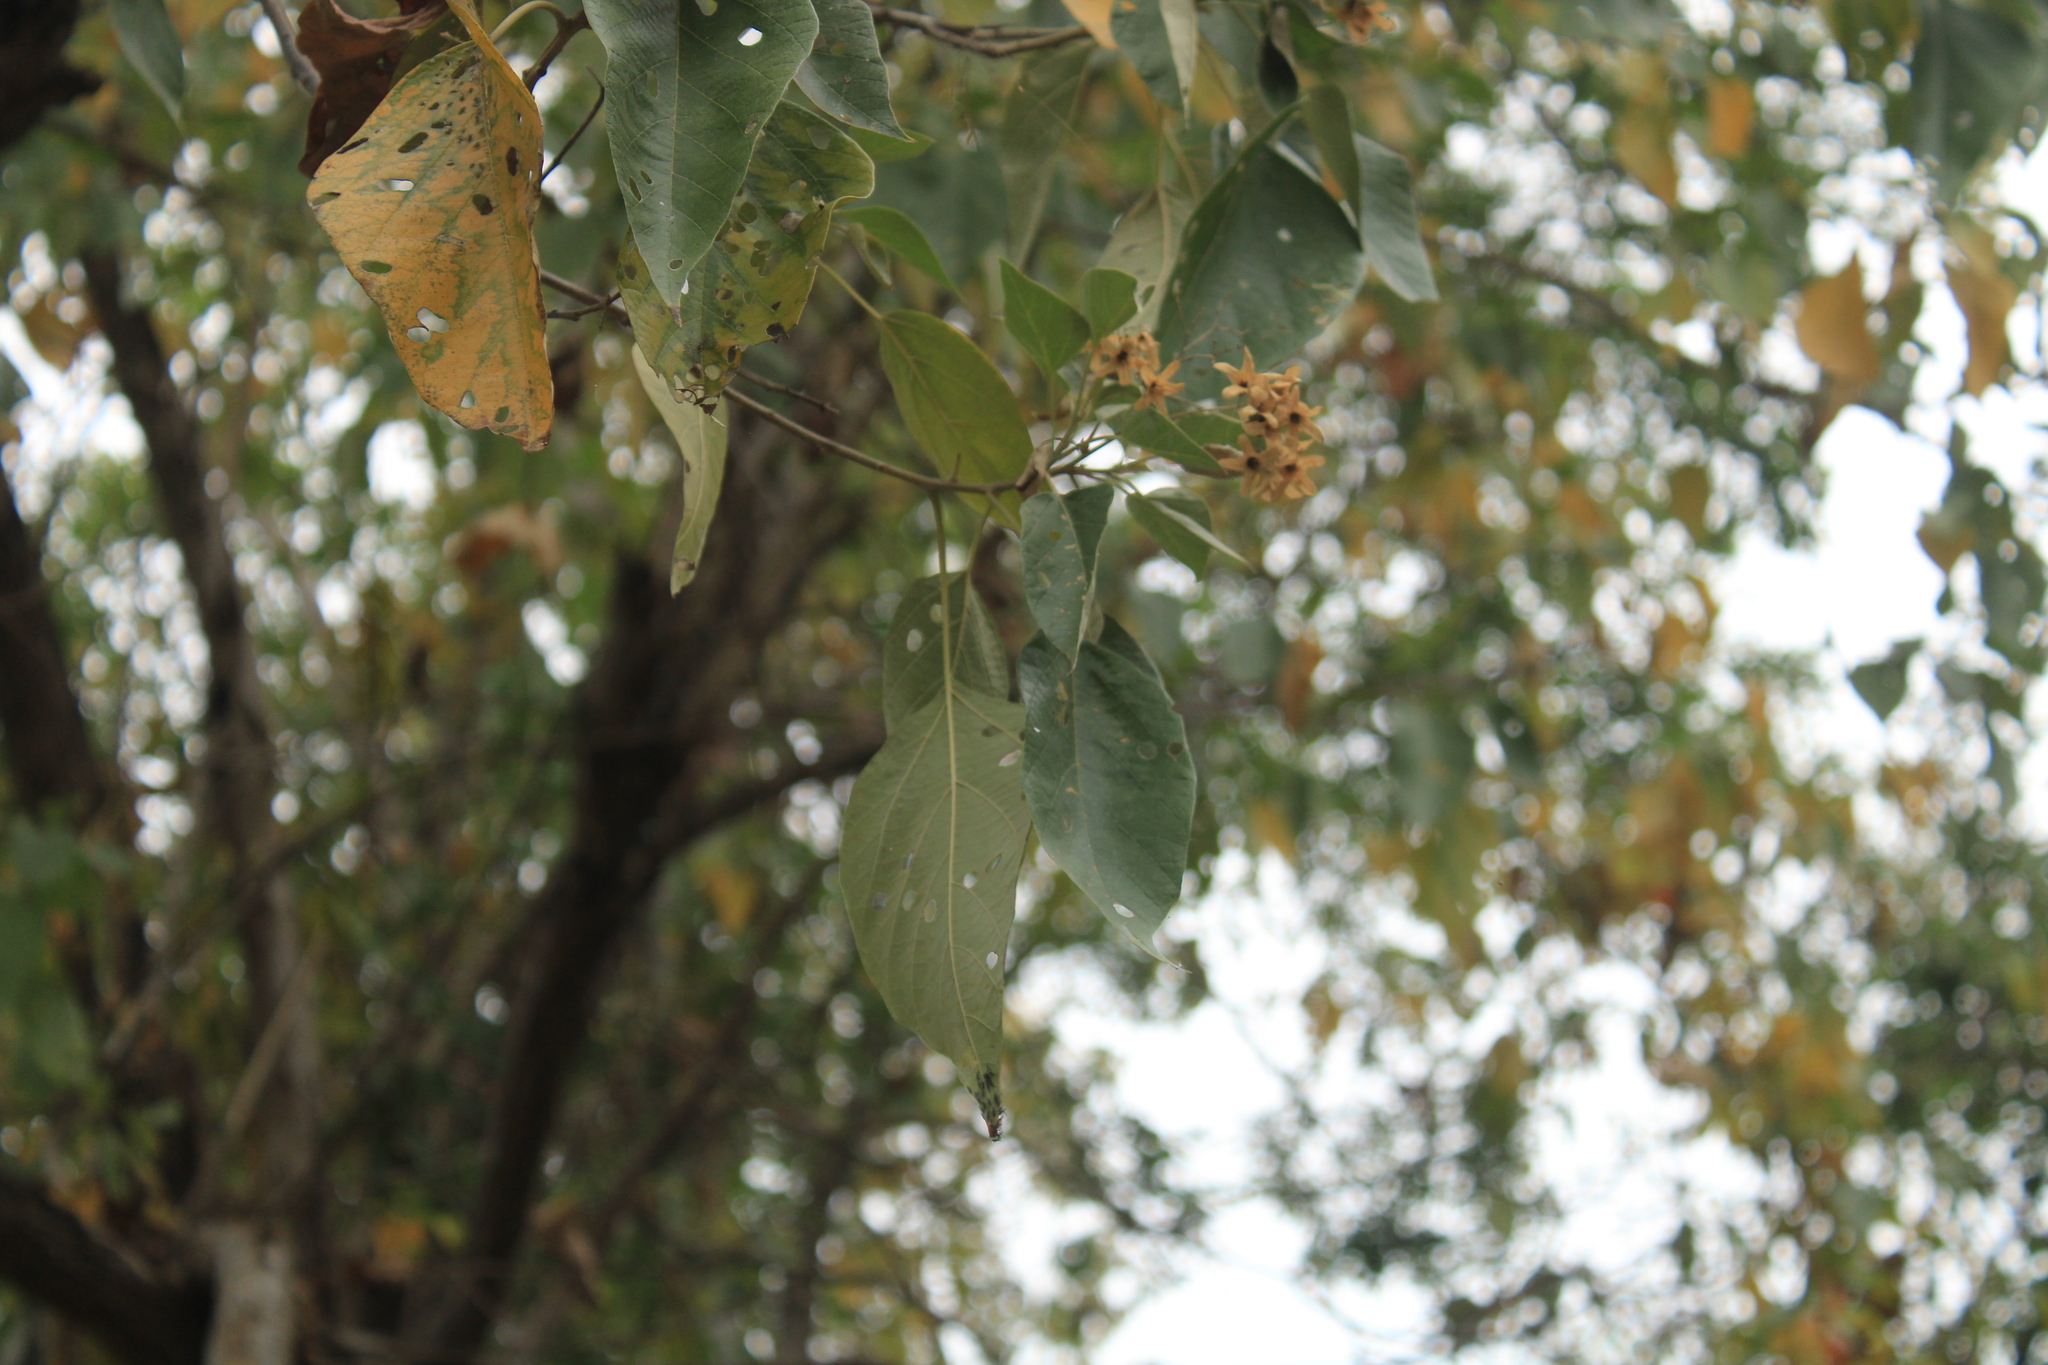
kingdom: Plantae
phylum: Tracheophyta
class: Magnoliopsida
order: Boraginales
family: Cordiaceae
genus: Cordia
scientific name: Cordia elaeagnoides
